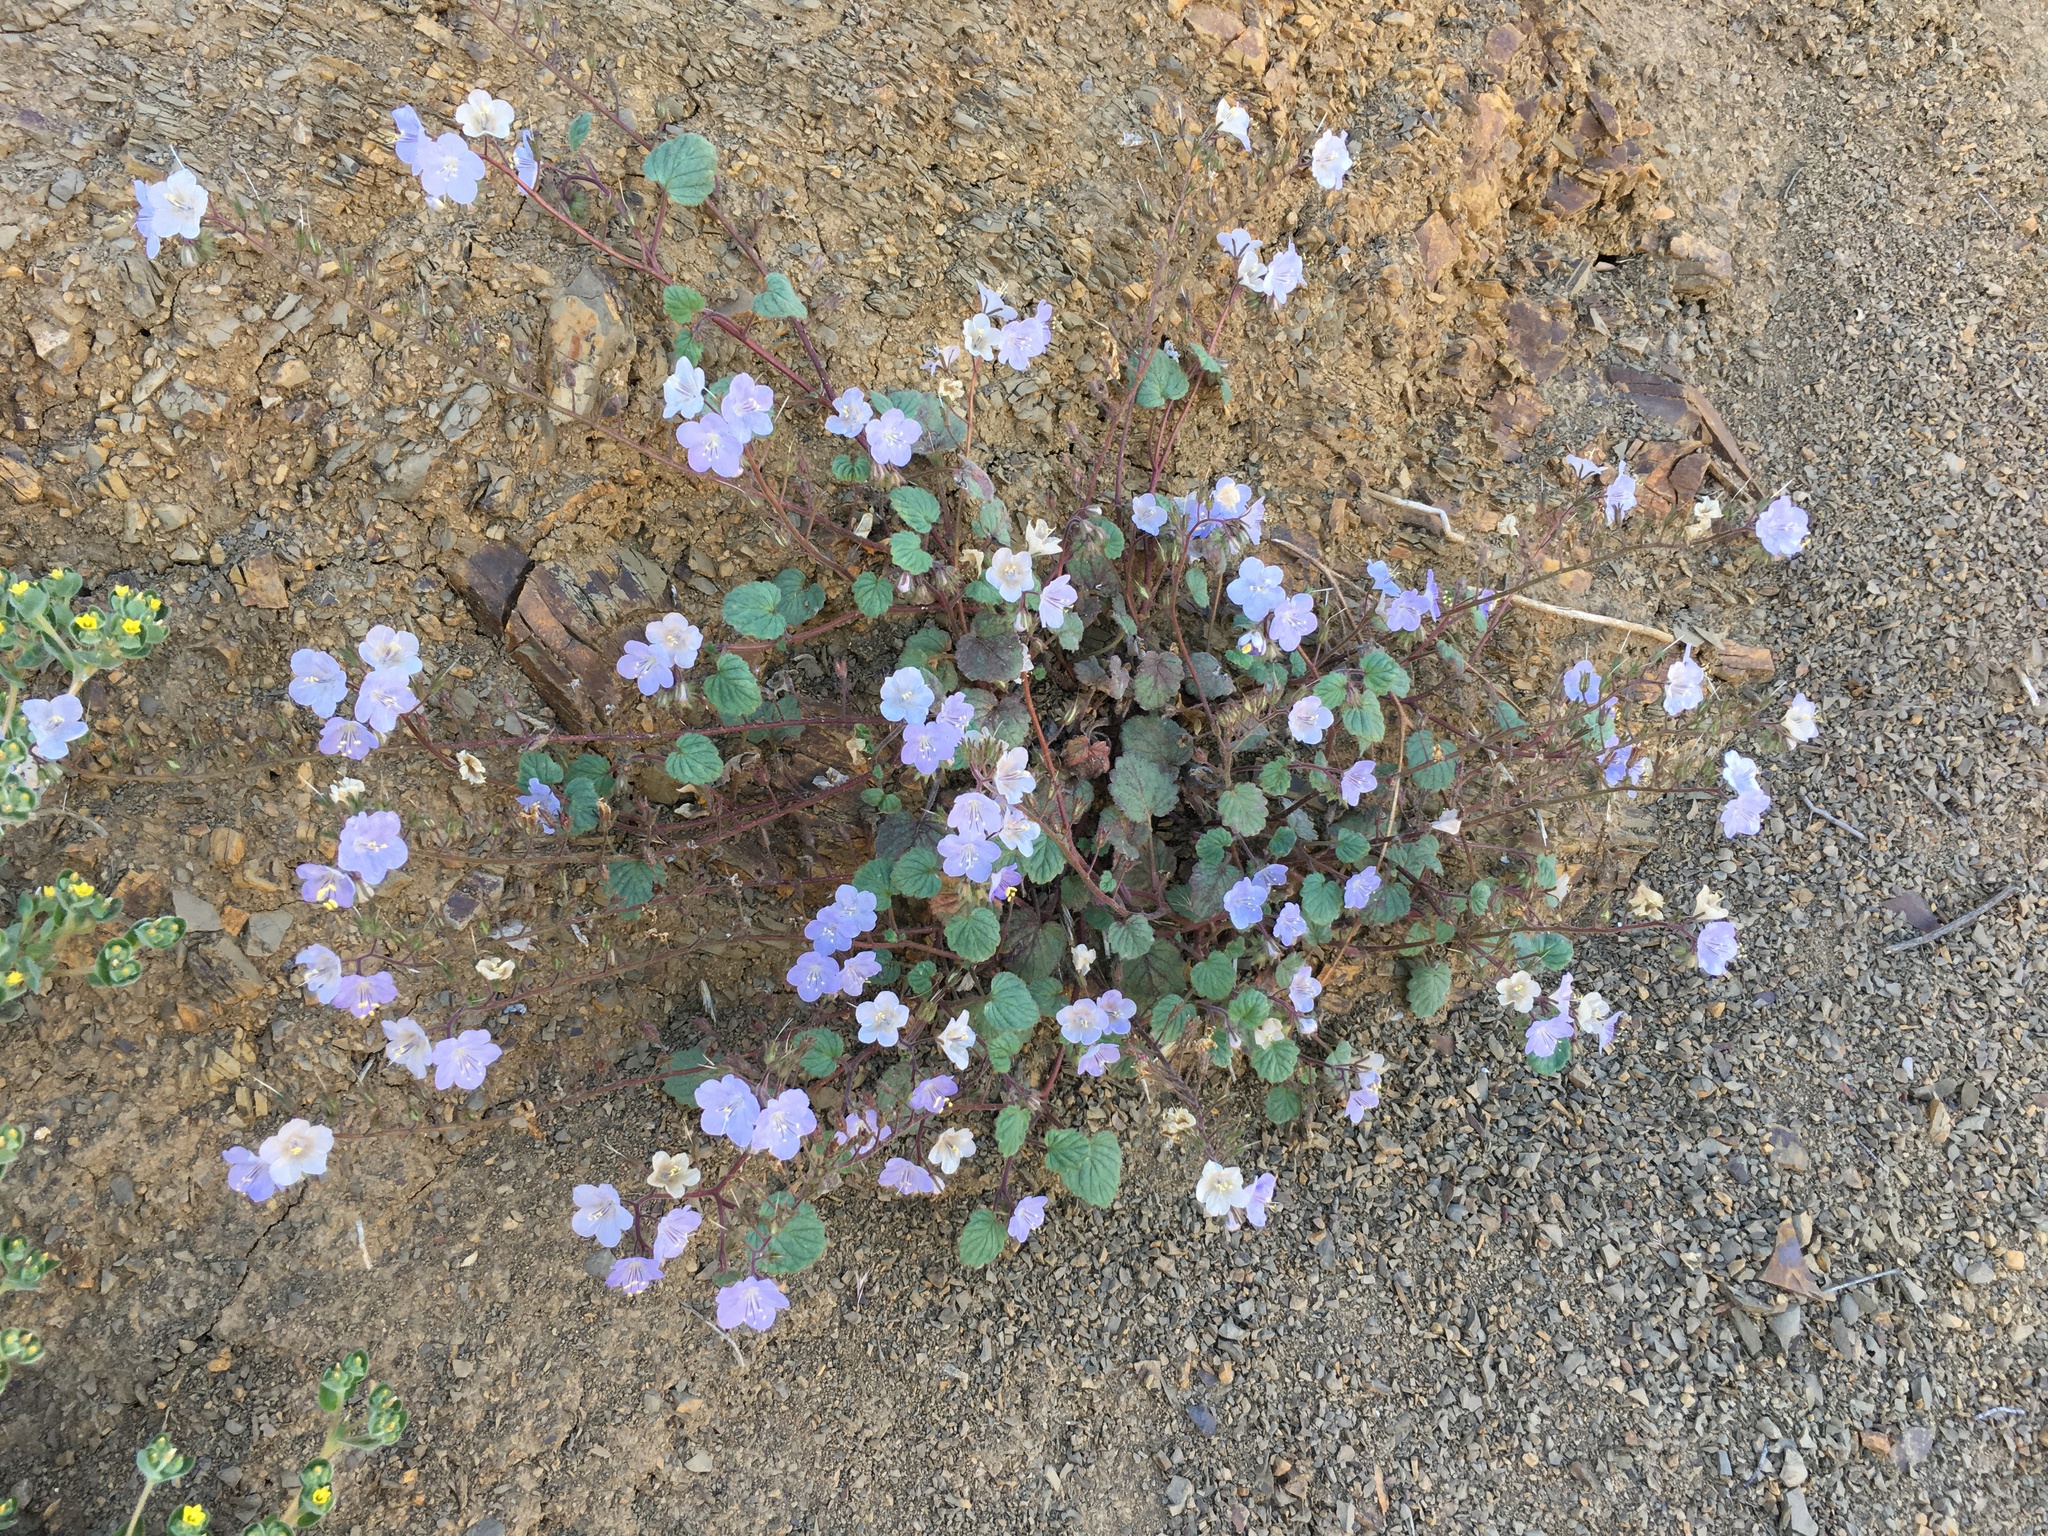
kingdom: Plantae
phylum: Tracheophyta
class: Magnoliopsida
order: Boraginales
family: Hydrophyllaceae
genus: Phacelia
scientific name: Phacelia longipes
